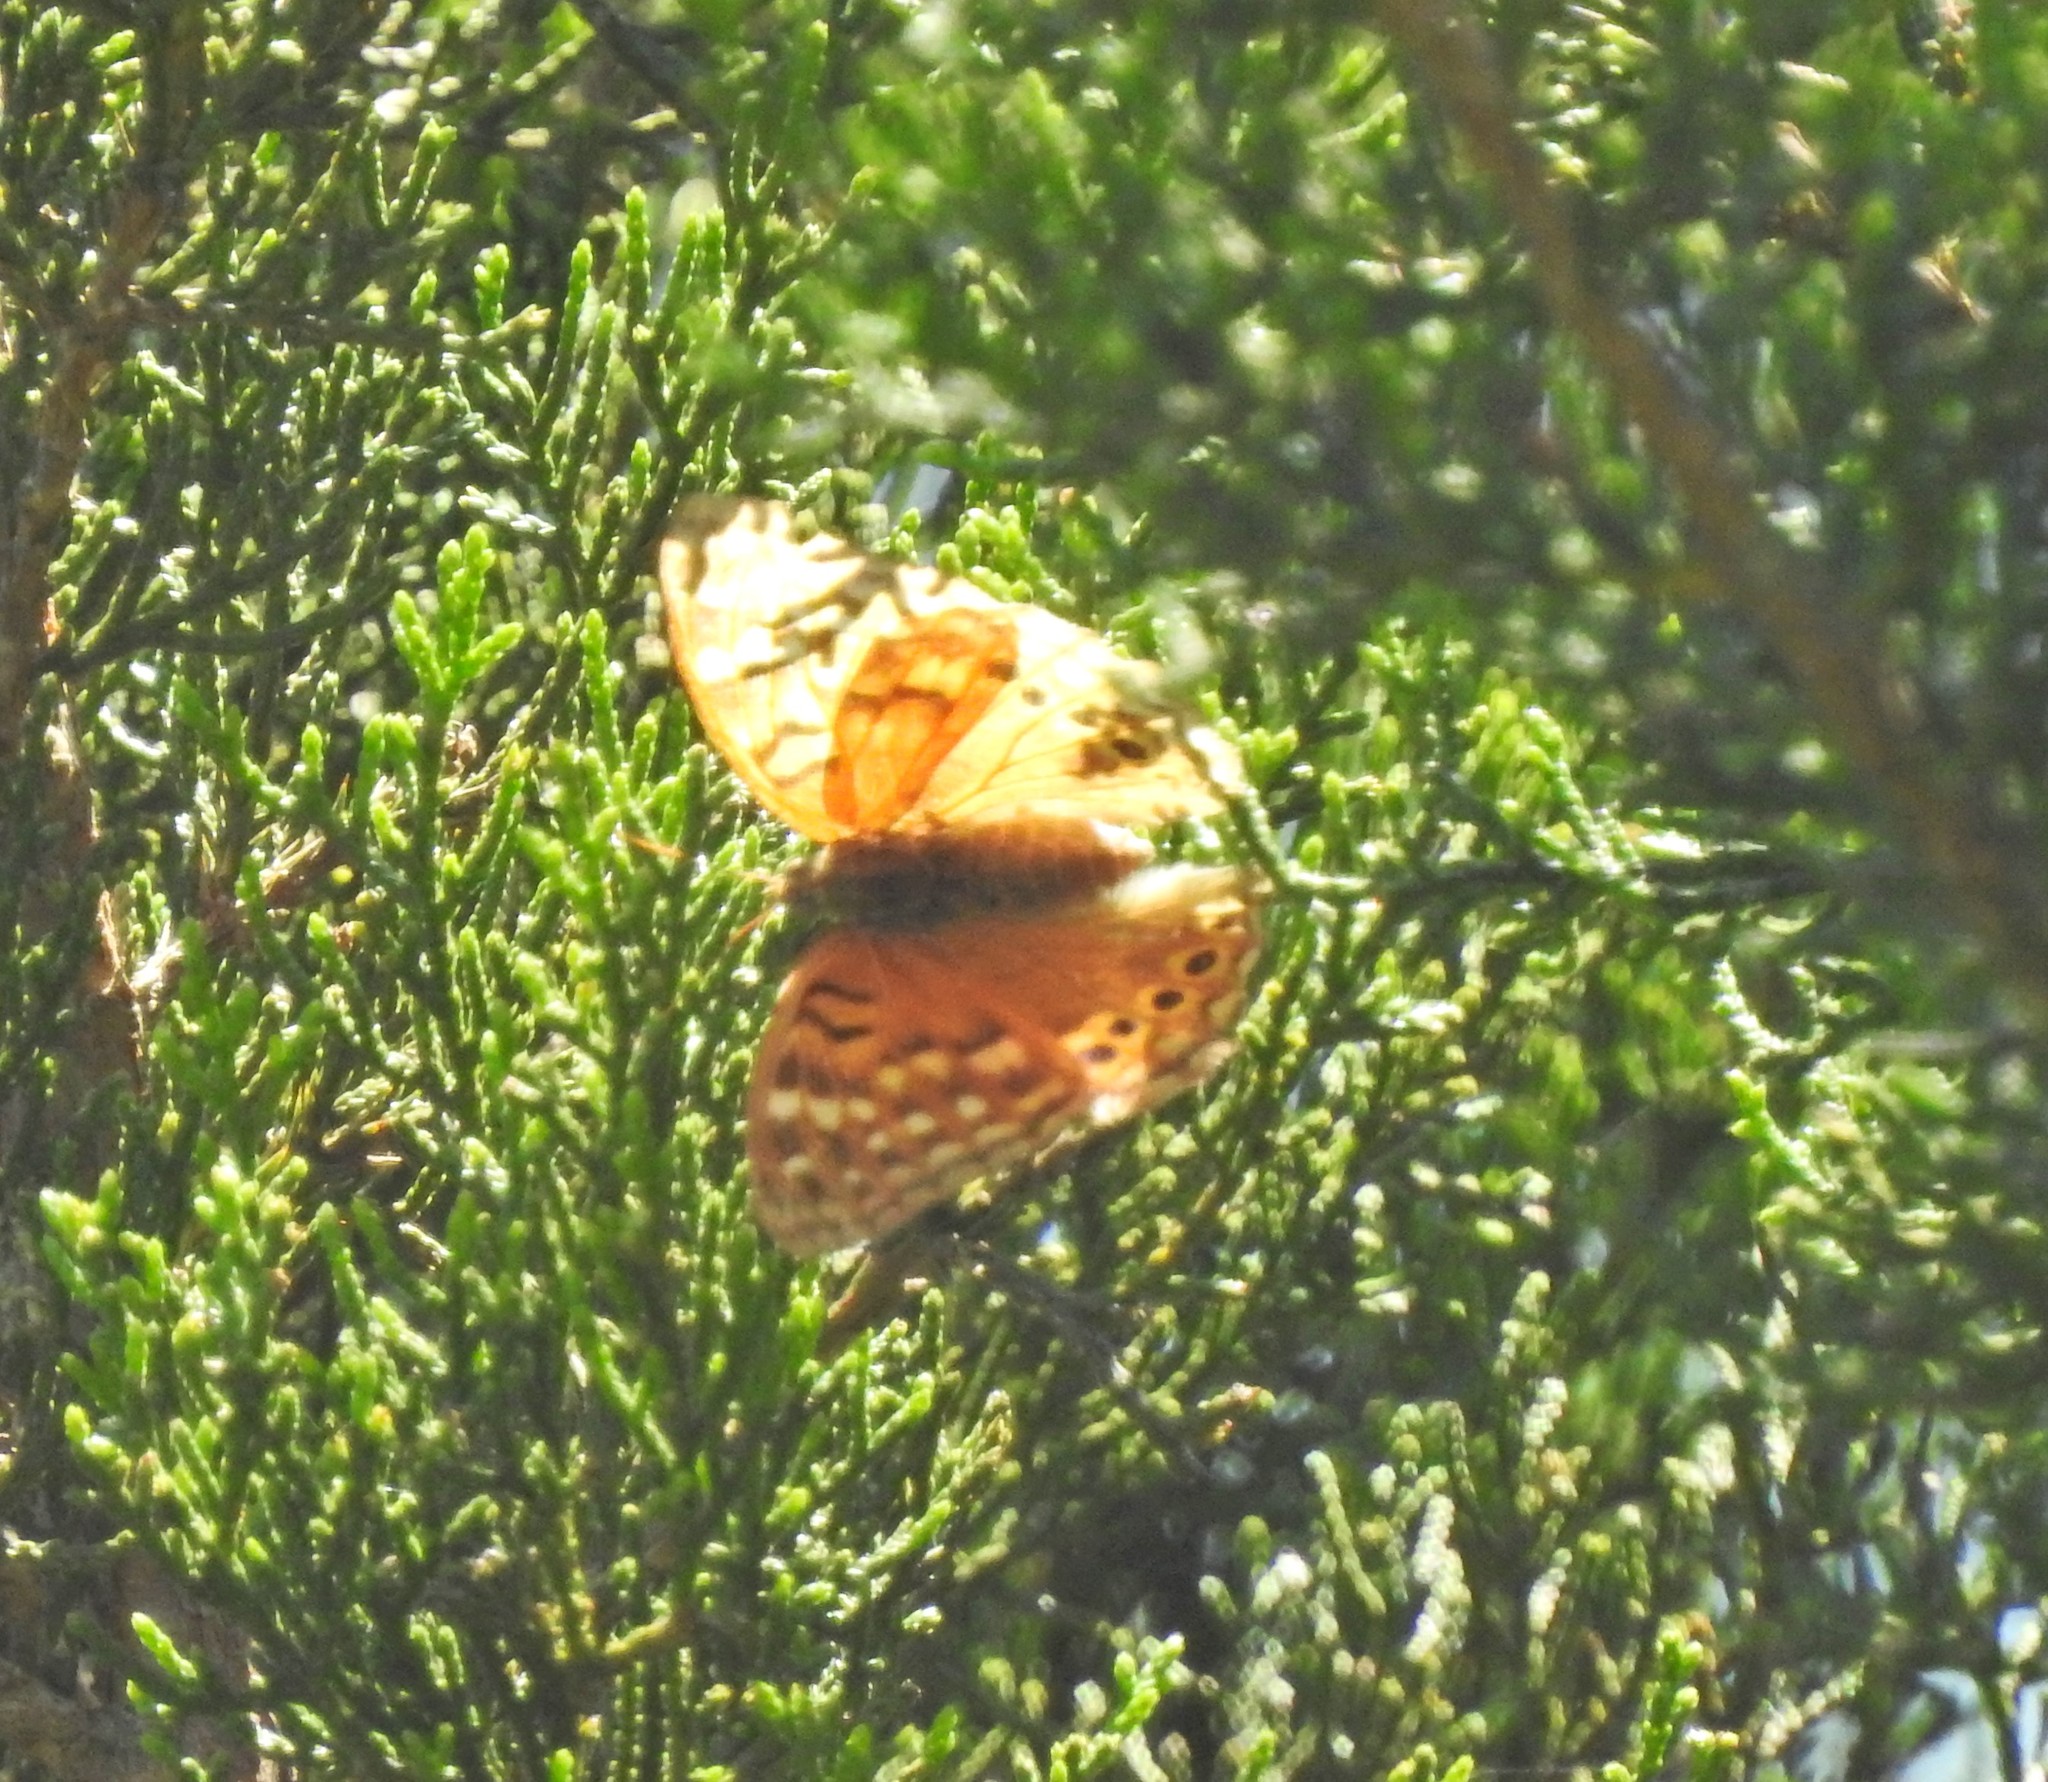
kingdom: Animalia
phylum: Arthropoda
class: Insecta
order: Lepidoptera
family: Nymphalidae
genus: Asterocampa
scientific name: Asterocampa clyton
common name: Tawny emperor
